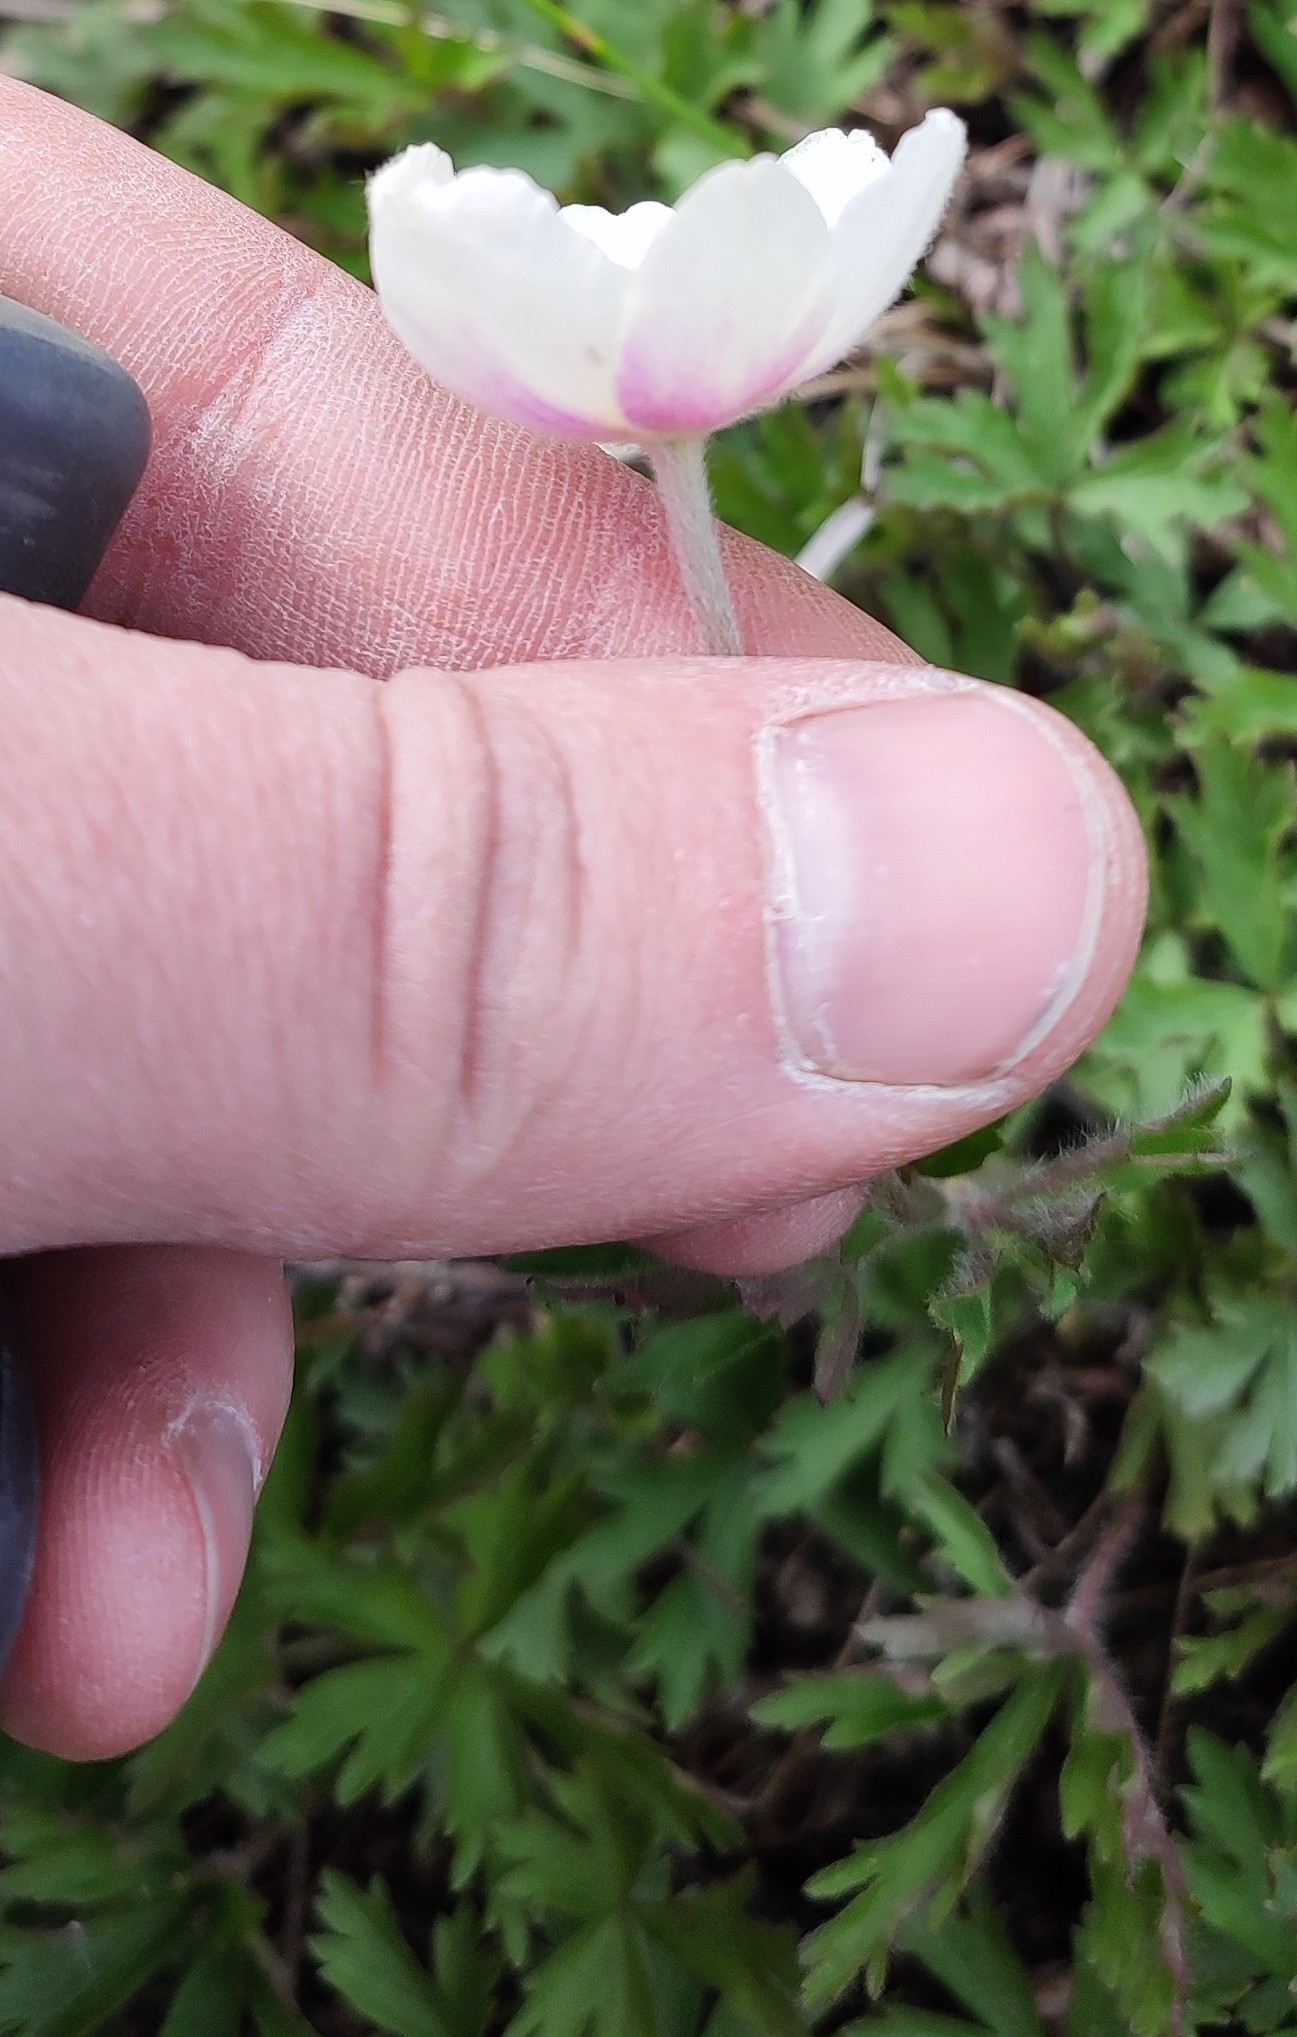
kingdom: Plantae
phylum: Tracheophyta
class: Magnoliopsida
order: Ranunculales
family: Ranunculaceae
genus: Anemone
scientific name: Anemone sylvestris
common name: Snowdrop anemone
